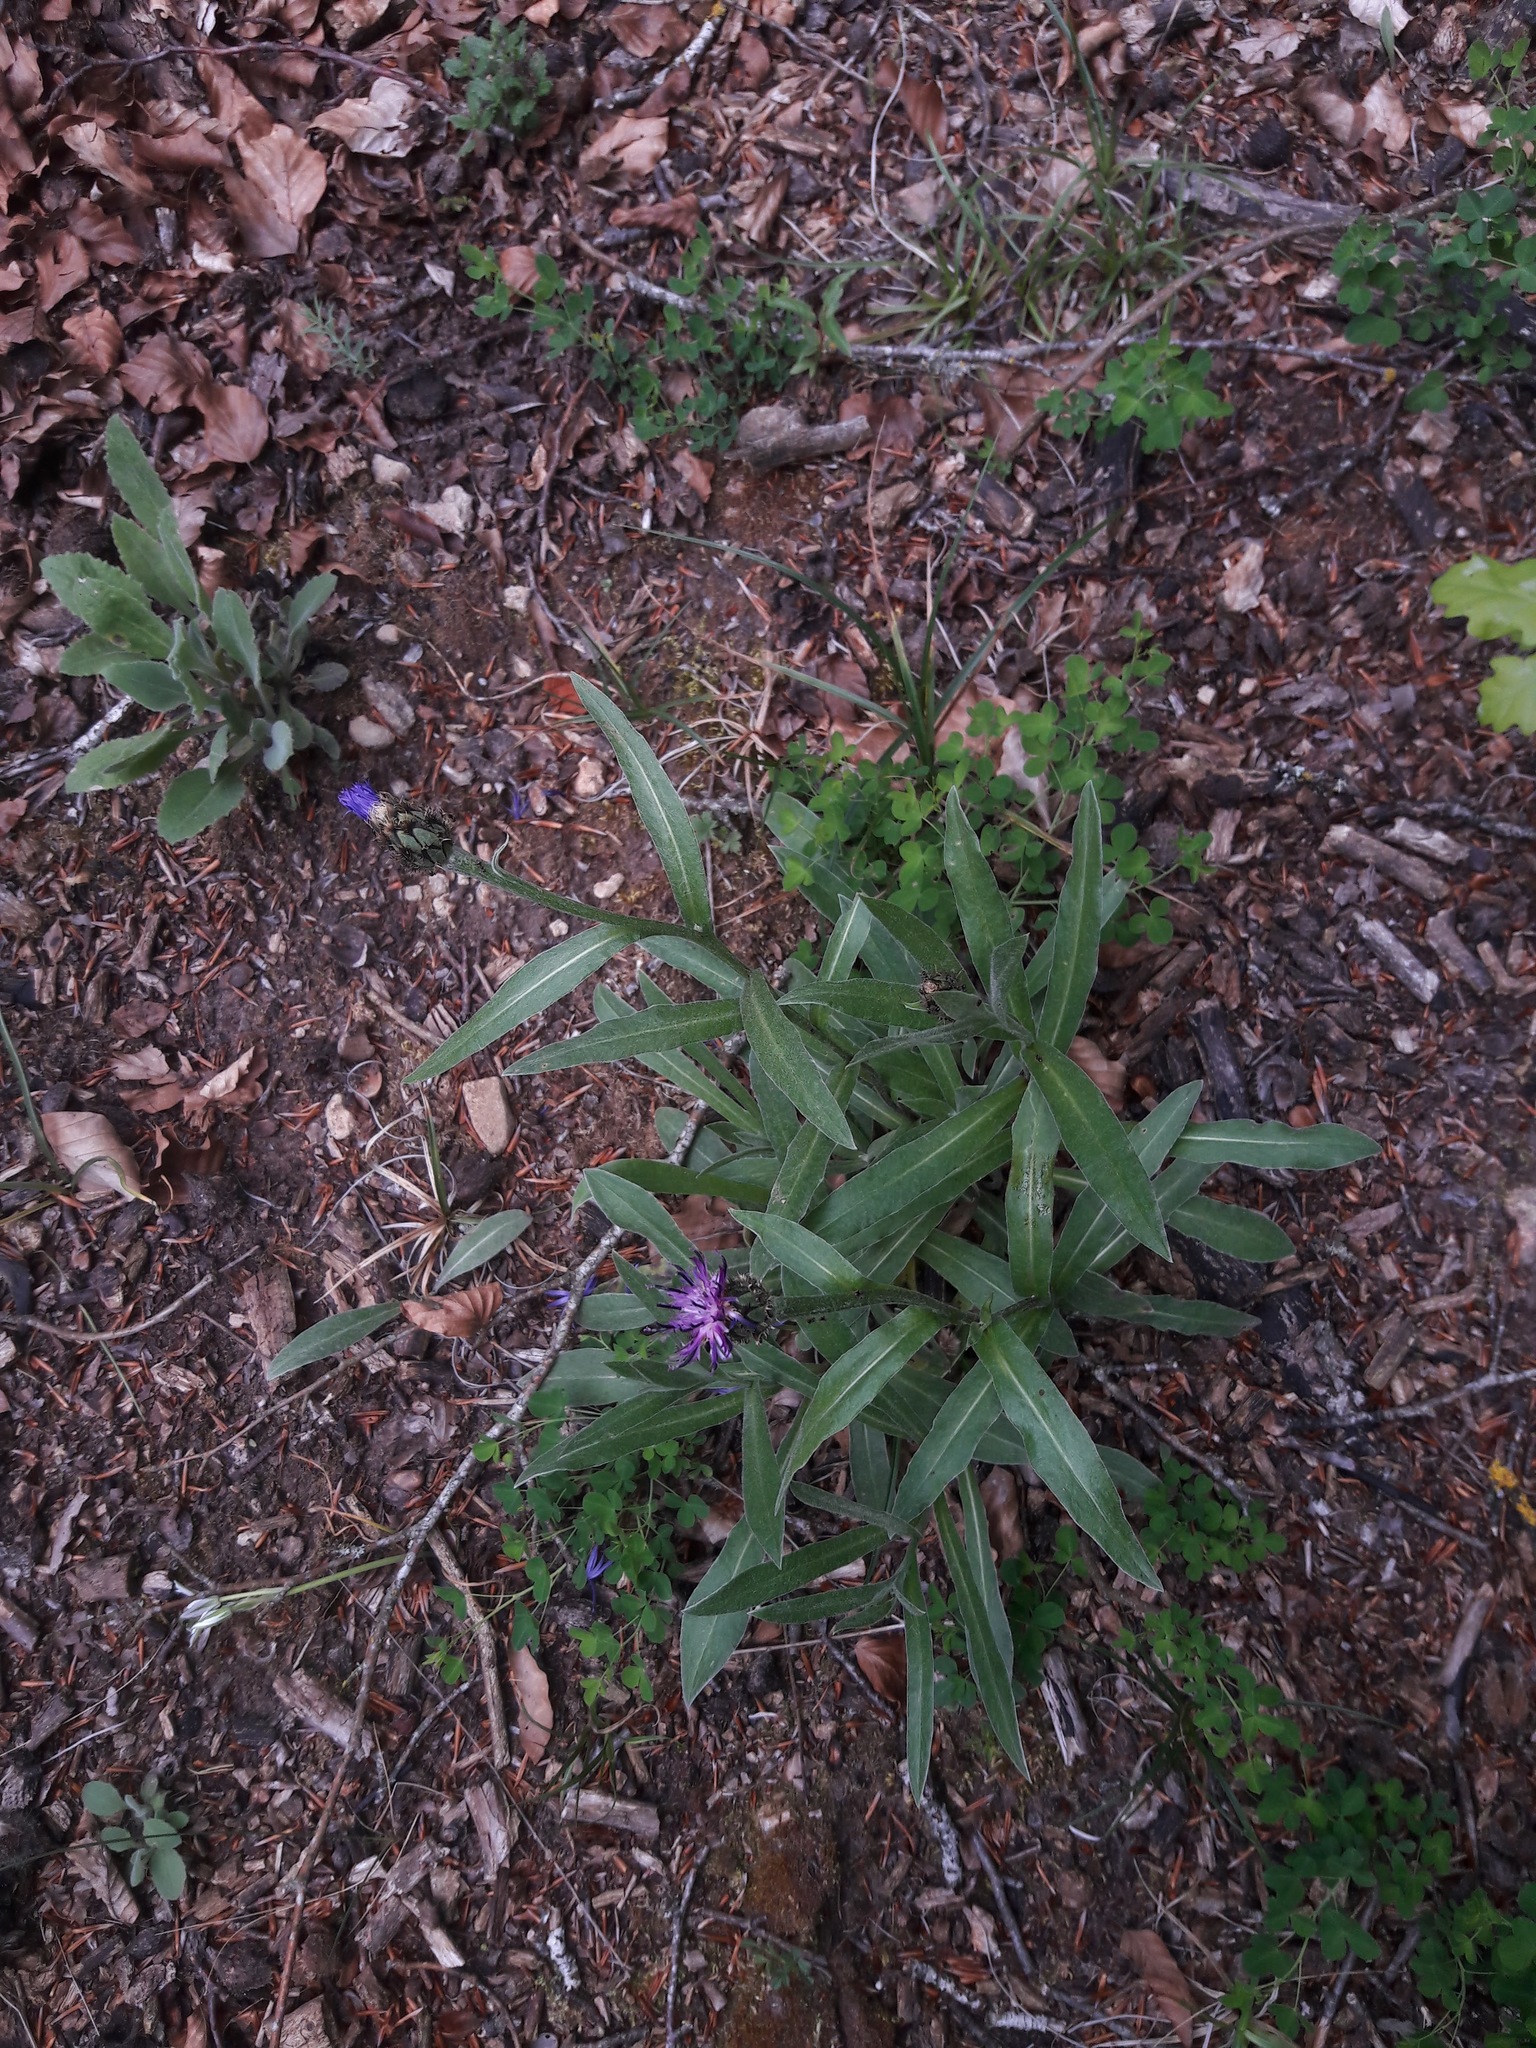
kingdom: Plantae
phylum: Tracheophyta
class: Magnoliopsida
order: Asterales
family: Asteraceae
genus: Centaurea
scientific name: Centaurea
